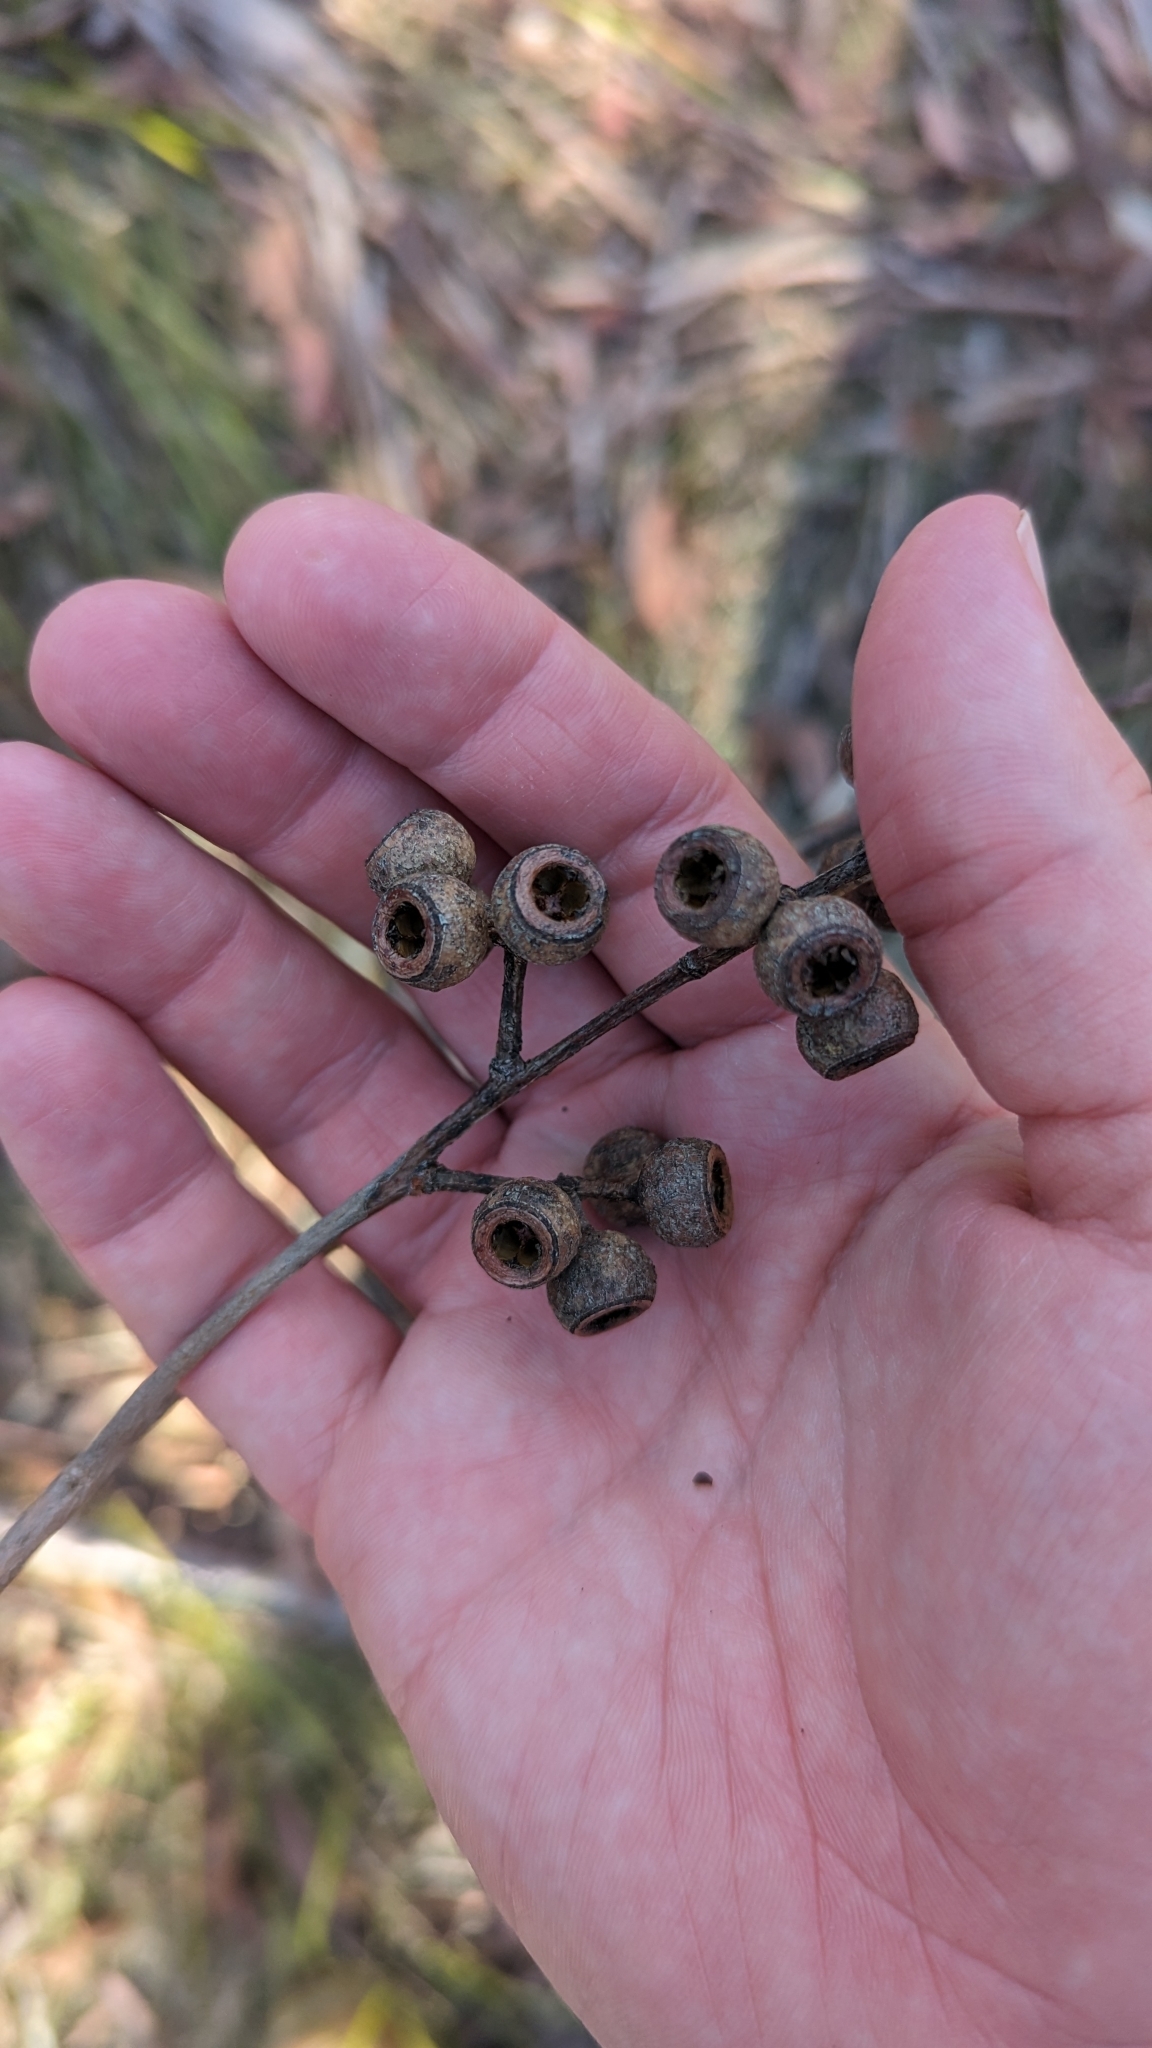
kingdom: Plantae
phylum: Tracheophyta
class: Magnoliopsida
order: Myrtales
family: Myrtaceae
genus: Eucalyptus
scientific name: Eucalyptus pilularis
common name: Blackbutt
